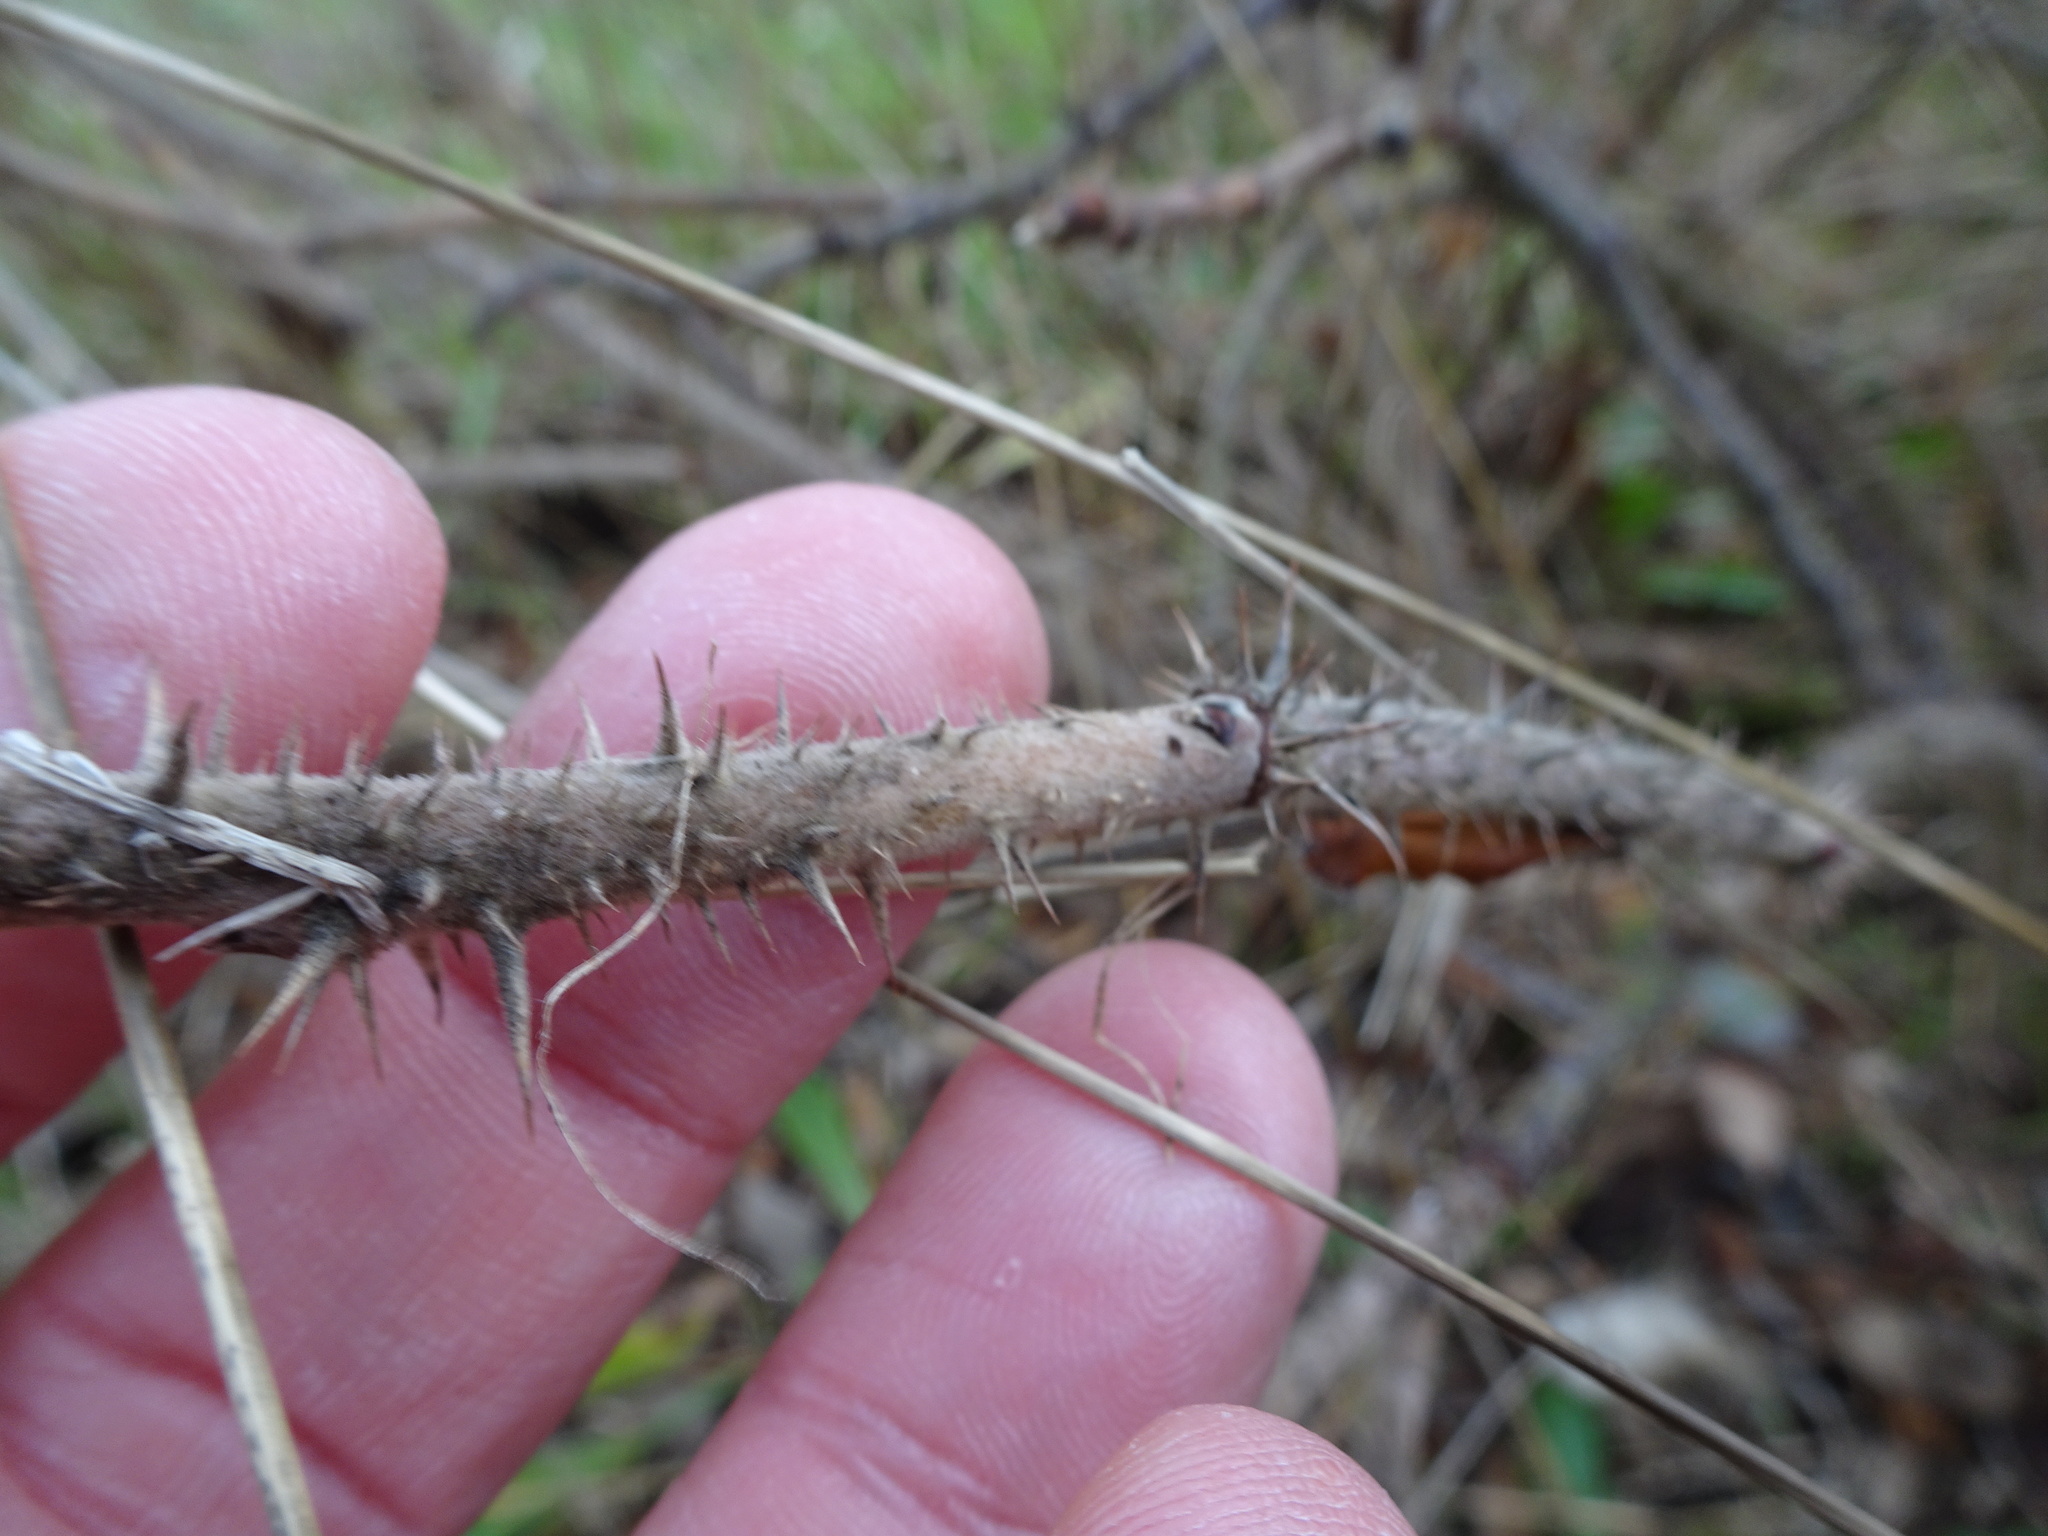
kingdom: Plantae
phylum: Tracheophyta
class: Magnoliopsida
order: Rosales
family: Rosaceae
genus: Rosa
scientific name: Rosa rugosa
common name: Japanese rose
